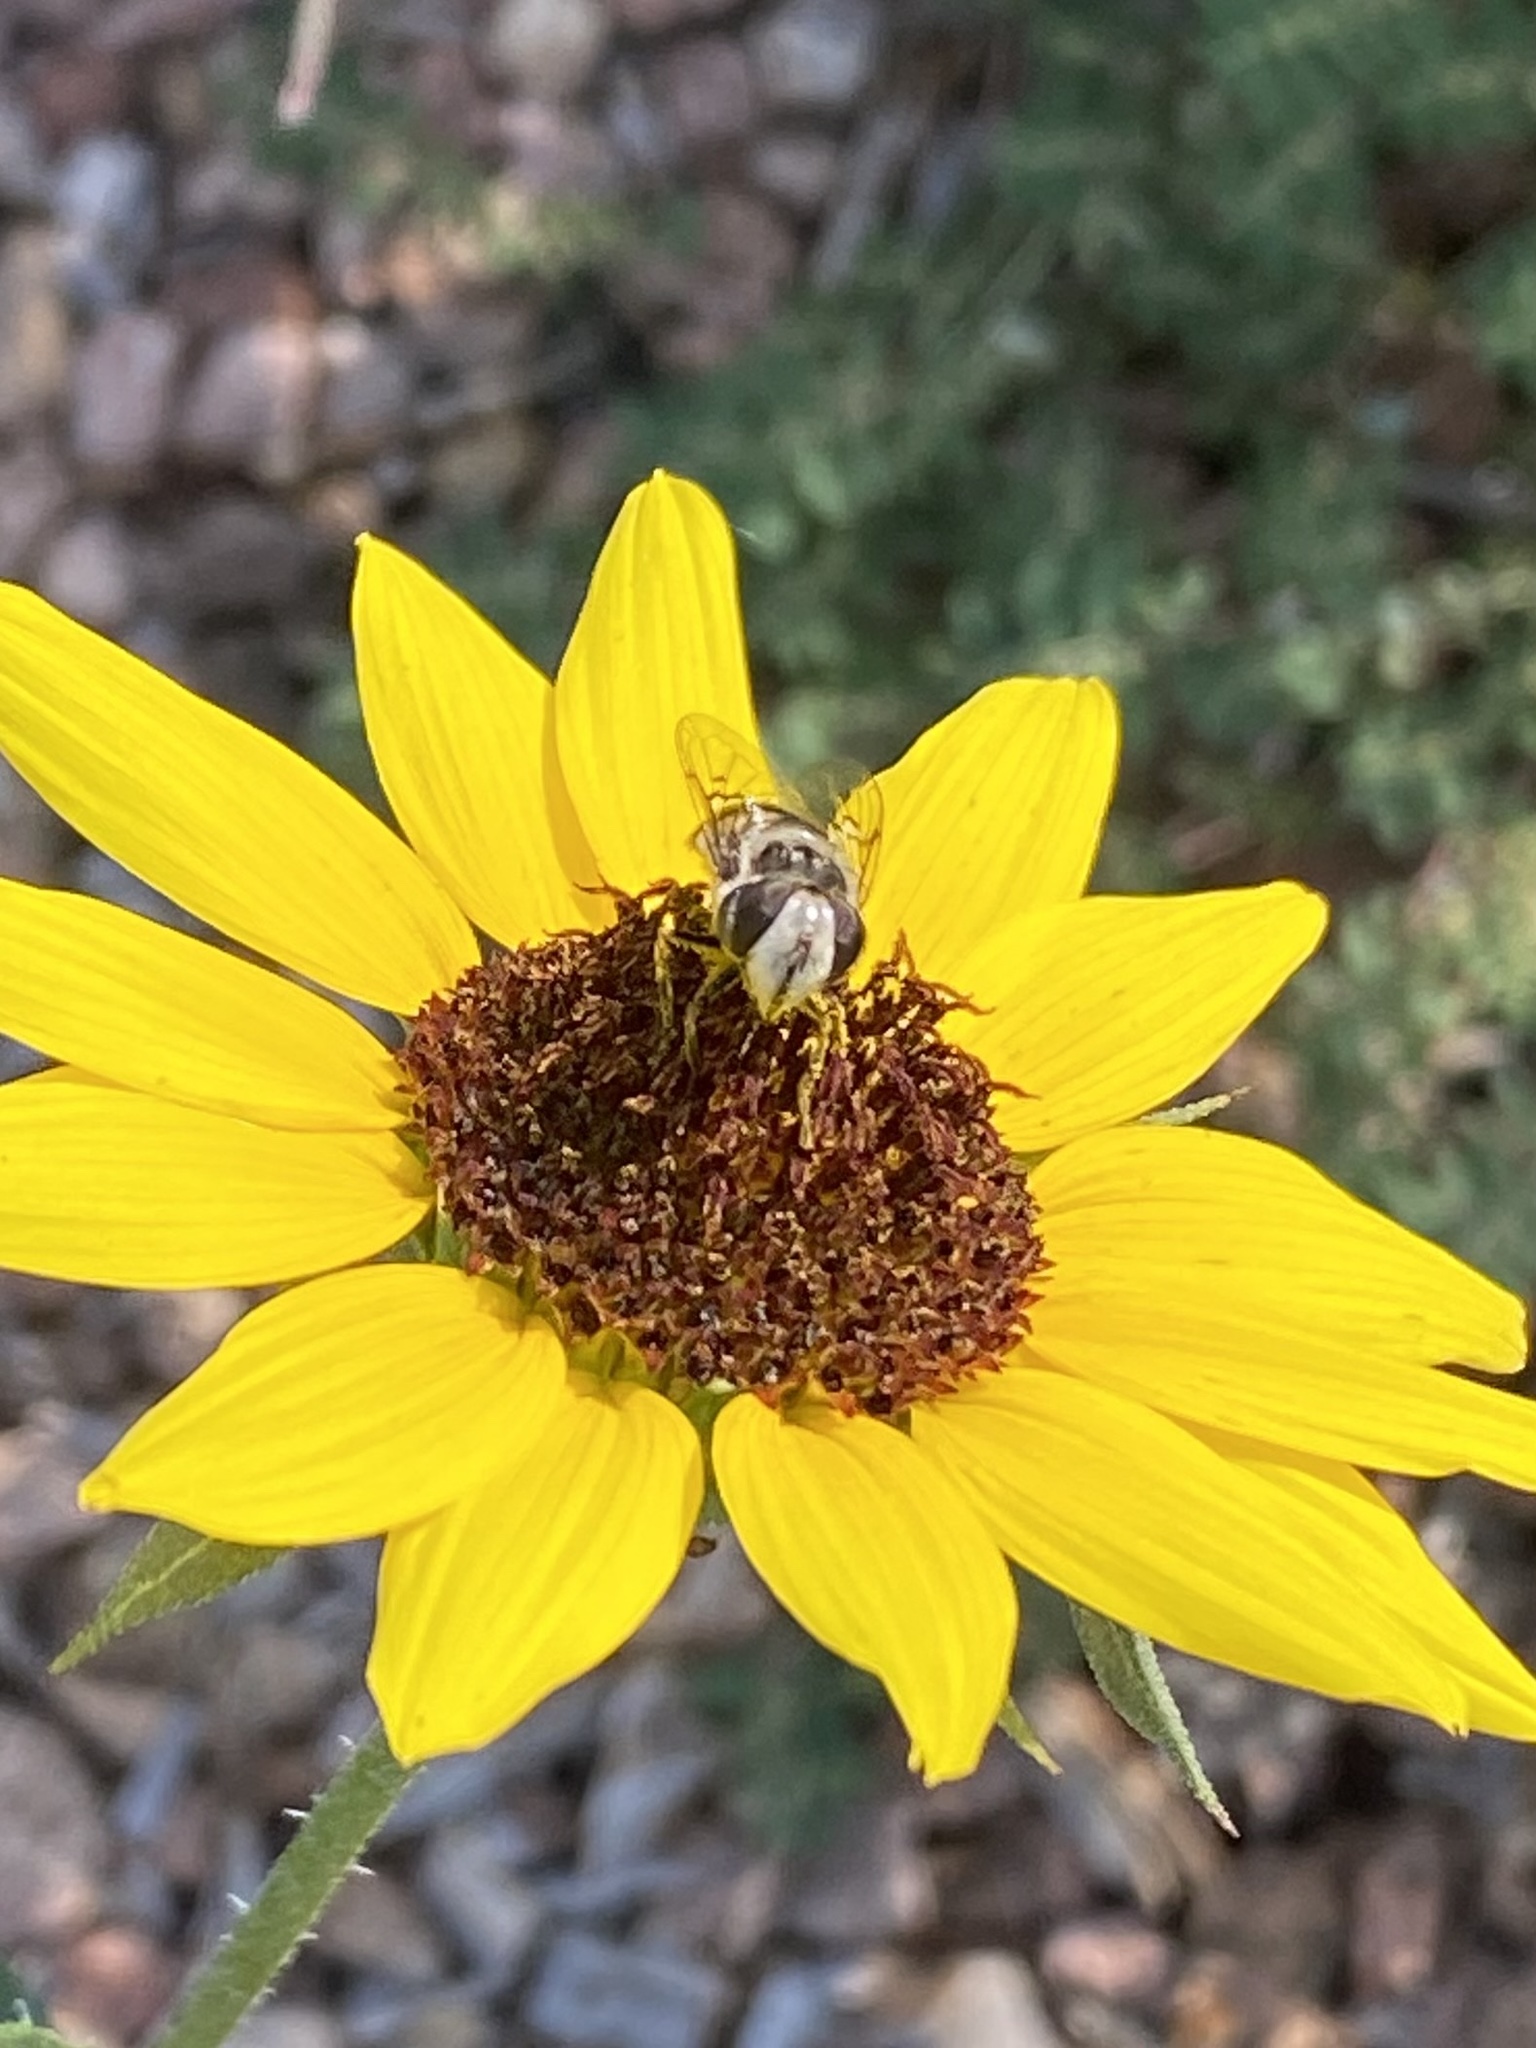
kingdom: Animalia
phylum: Arthropoda
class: Insecta
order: Diptera
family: Syrphidae
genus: Copestylum
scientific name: Copestylum avidum
